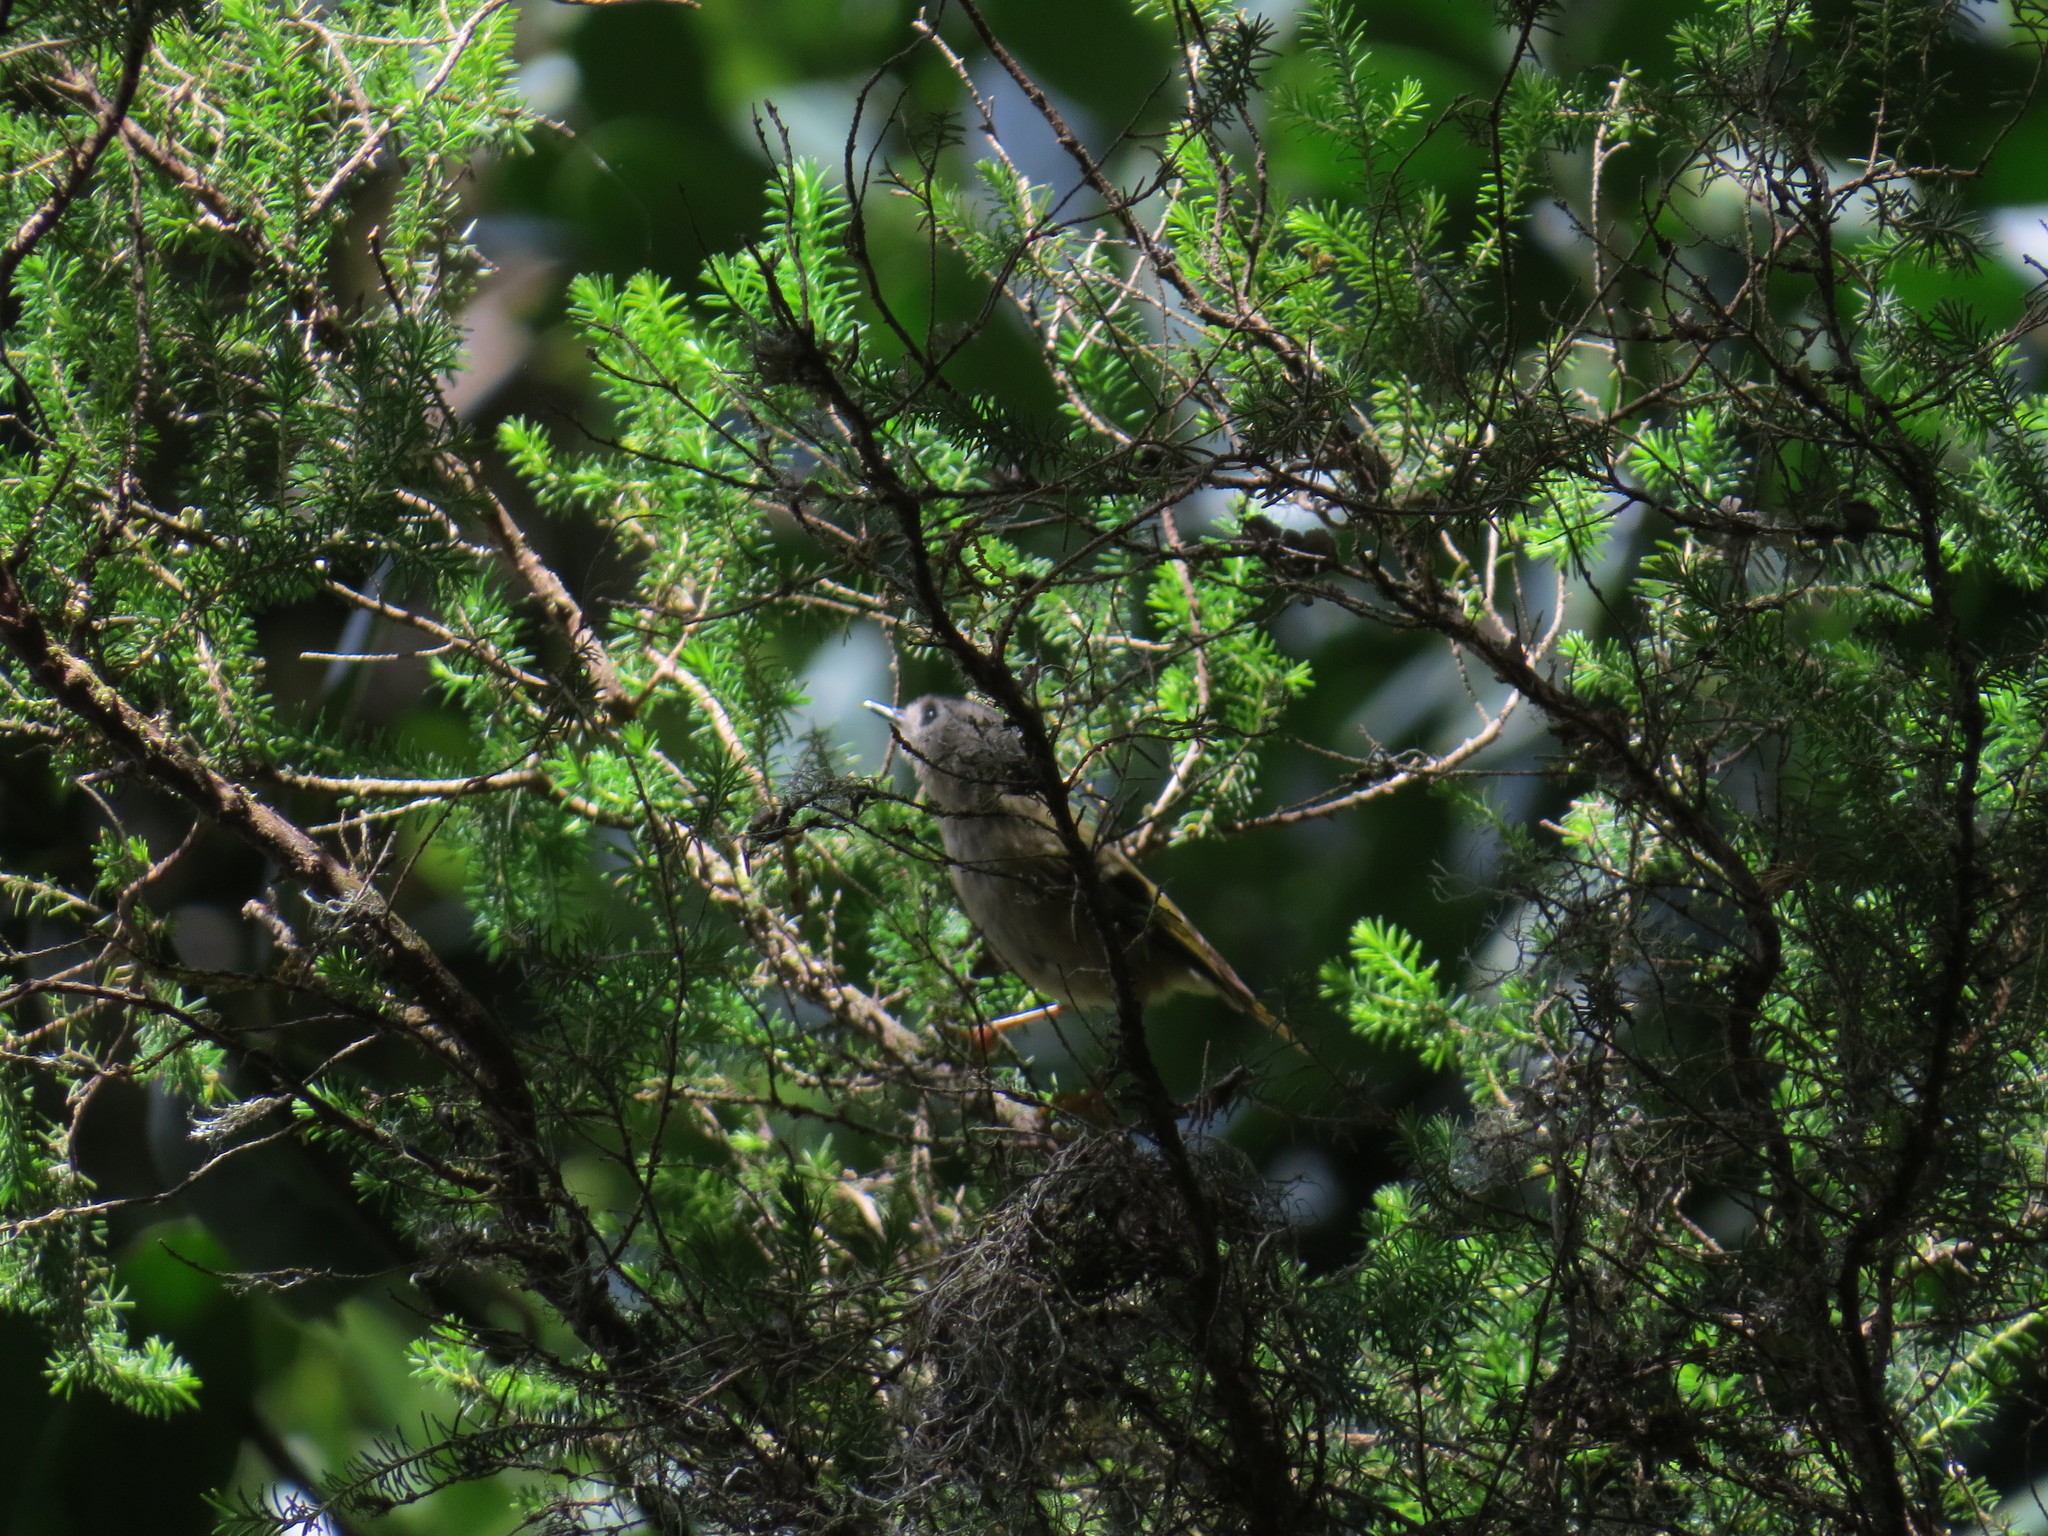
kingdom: Animalia
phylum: Chordata
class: Aves
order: Passeriformes
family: Regulidae
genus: Regulus
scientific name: Regulus regulus
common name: Goldcrest
